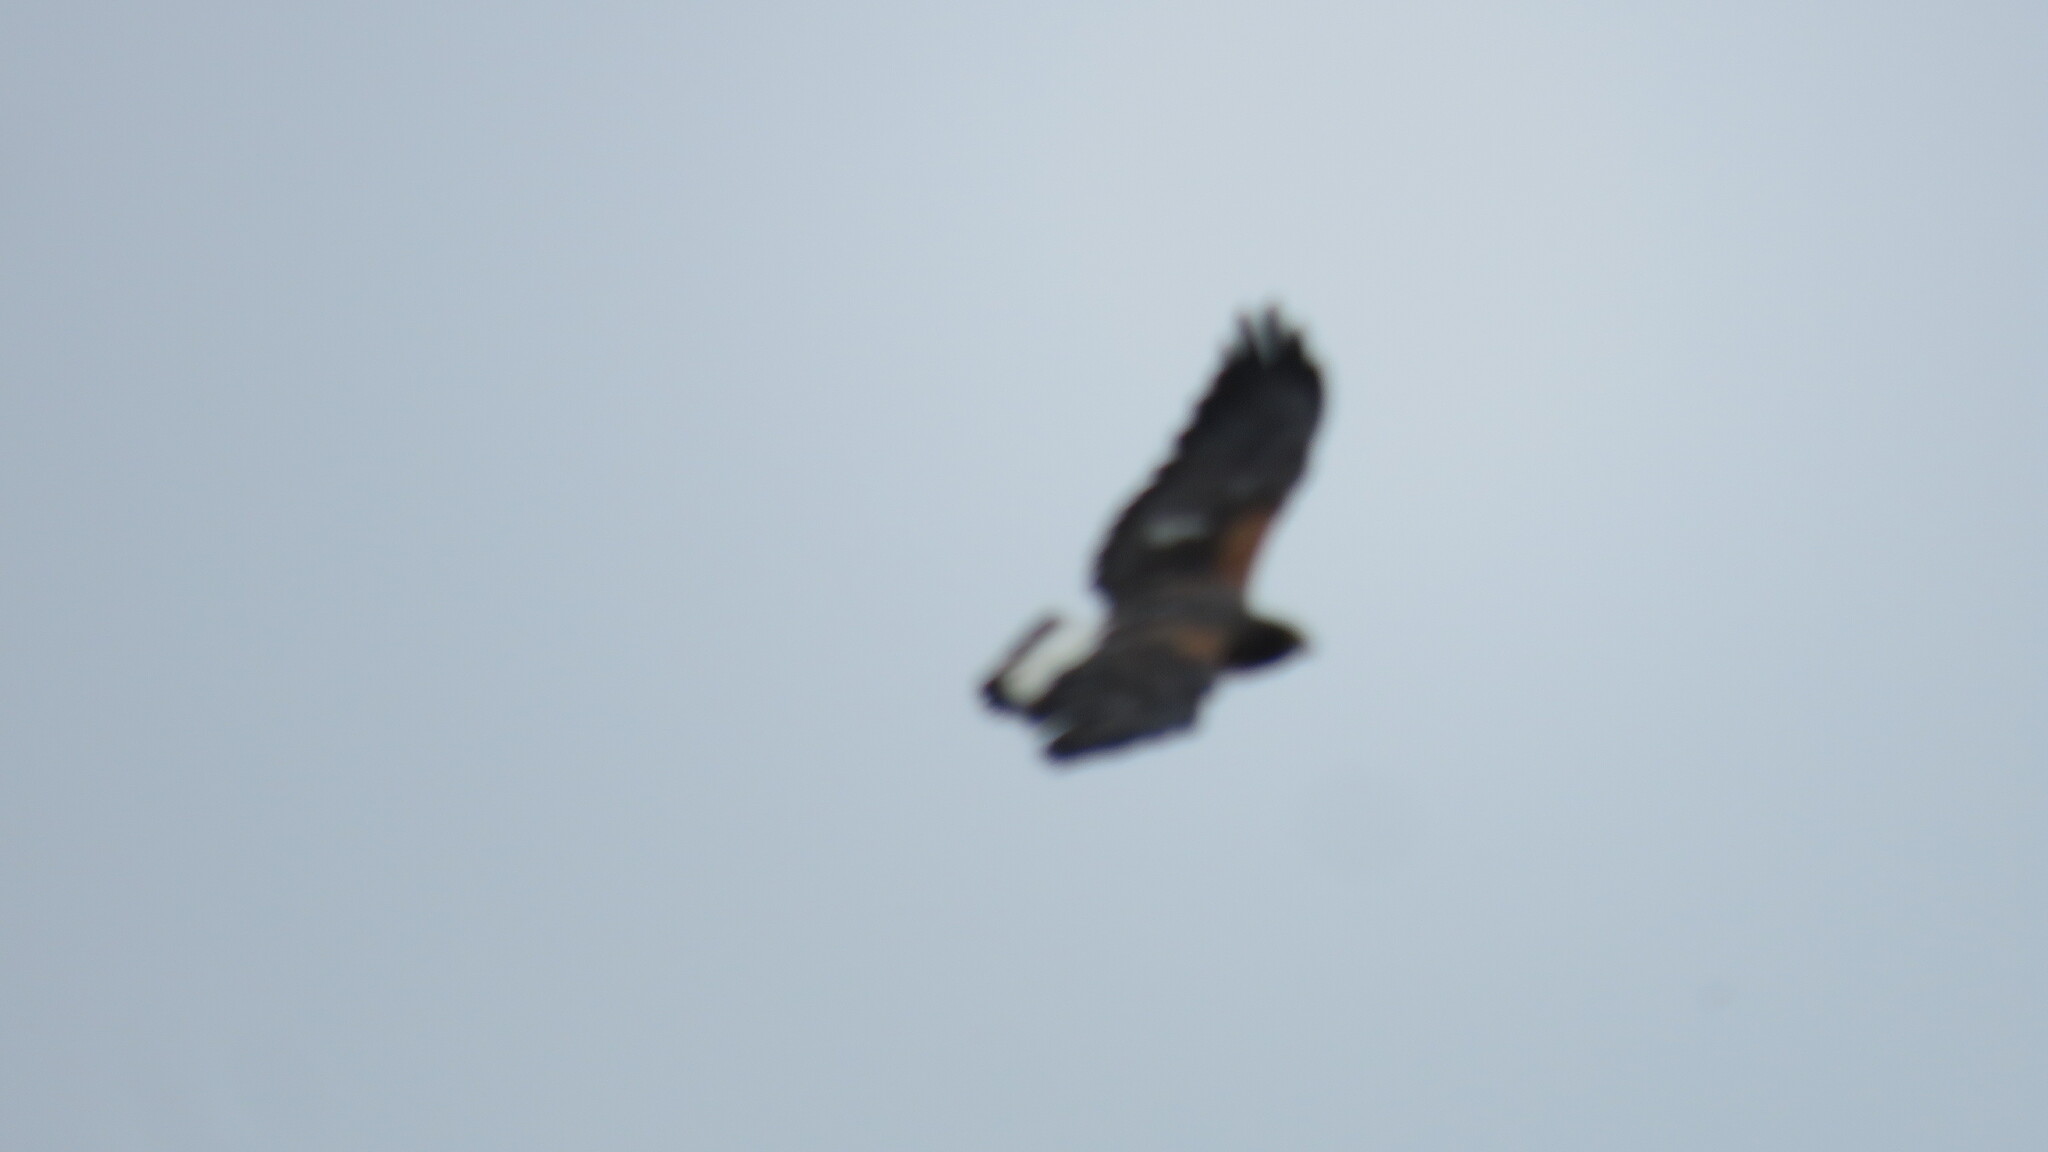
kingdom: Animalia
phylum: Chordata
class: Aves
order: Accipitriformes
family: Accipitridae
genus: Buteo
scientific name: Buteo albicaudatus
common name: White-tailed hawk
